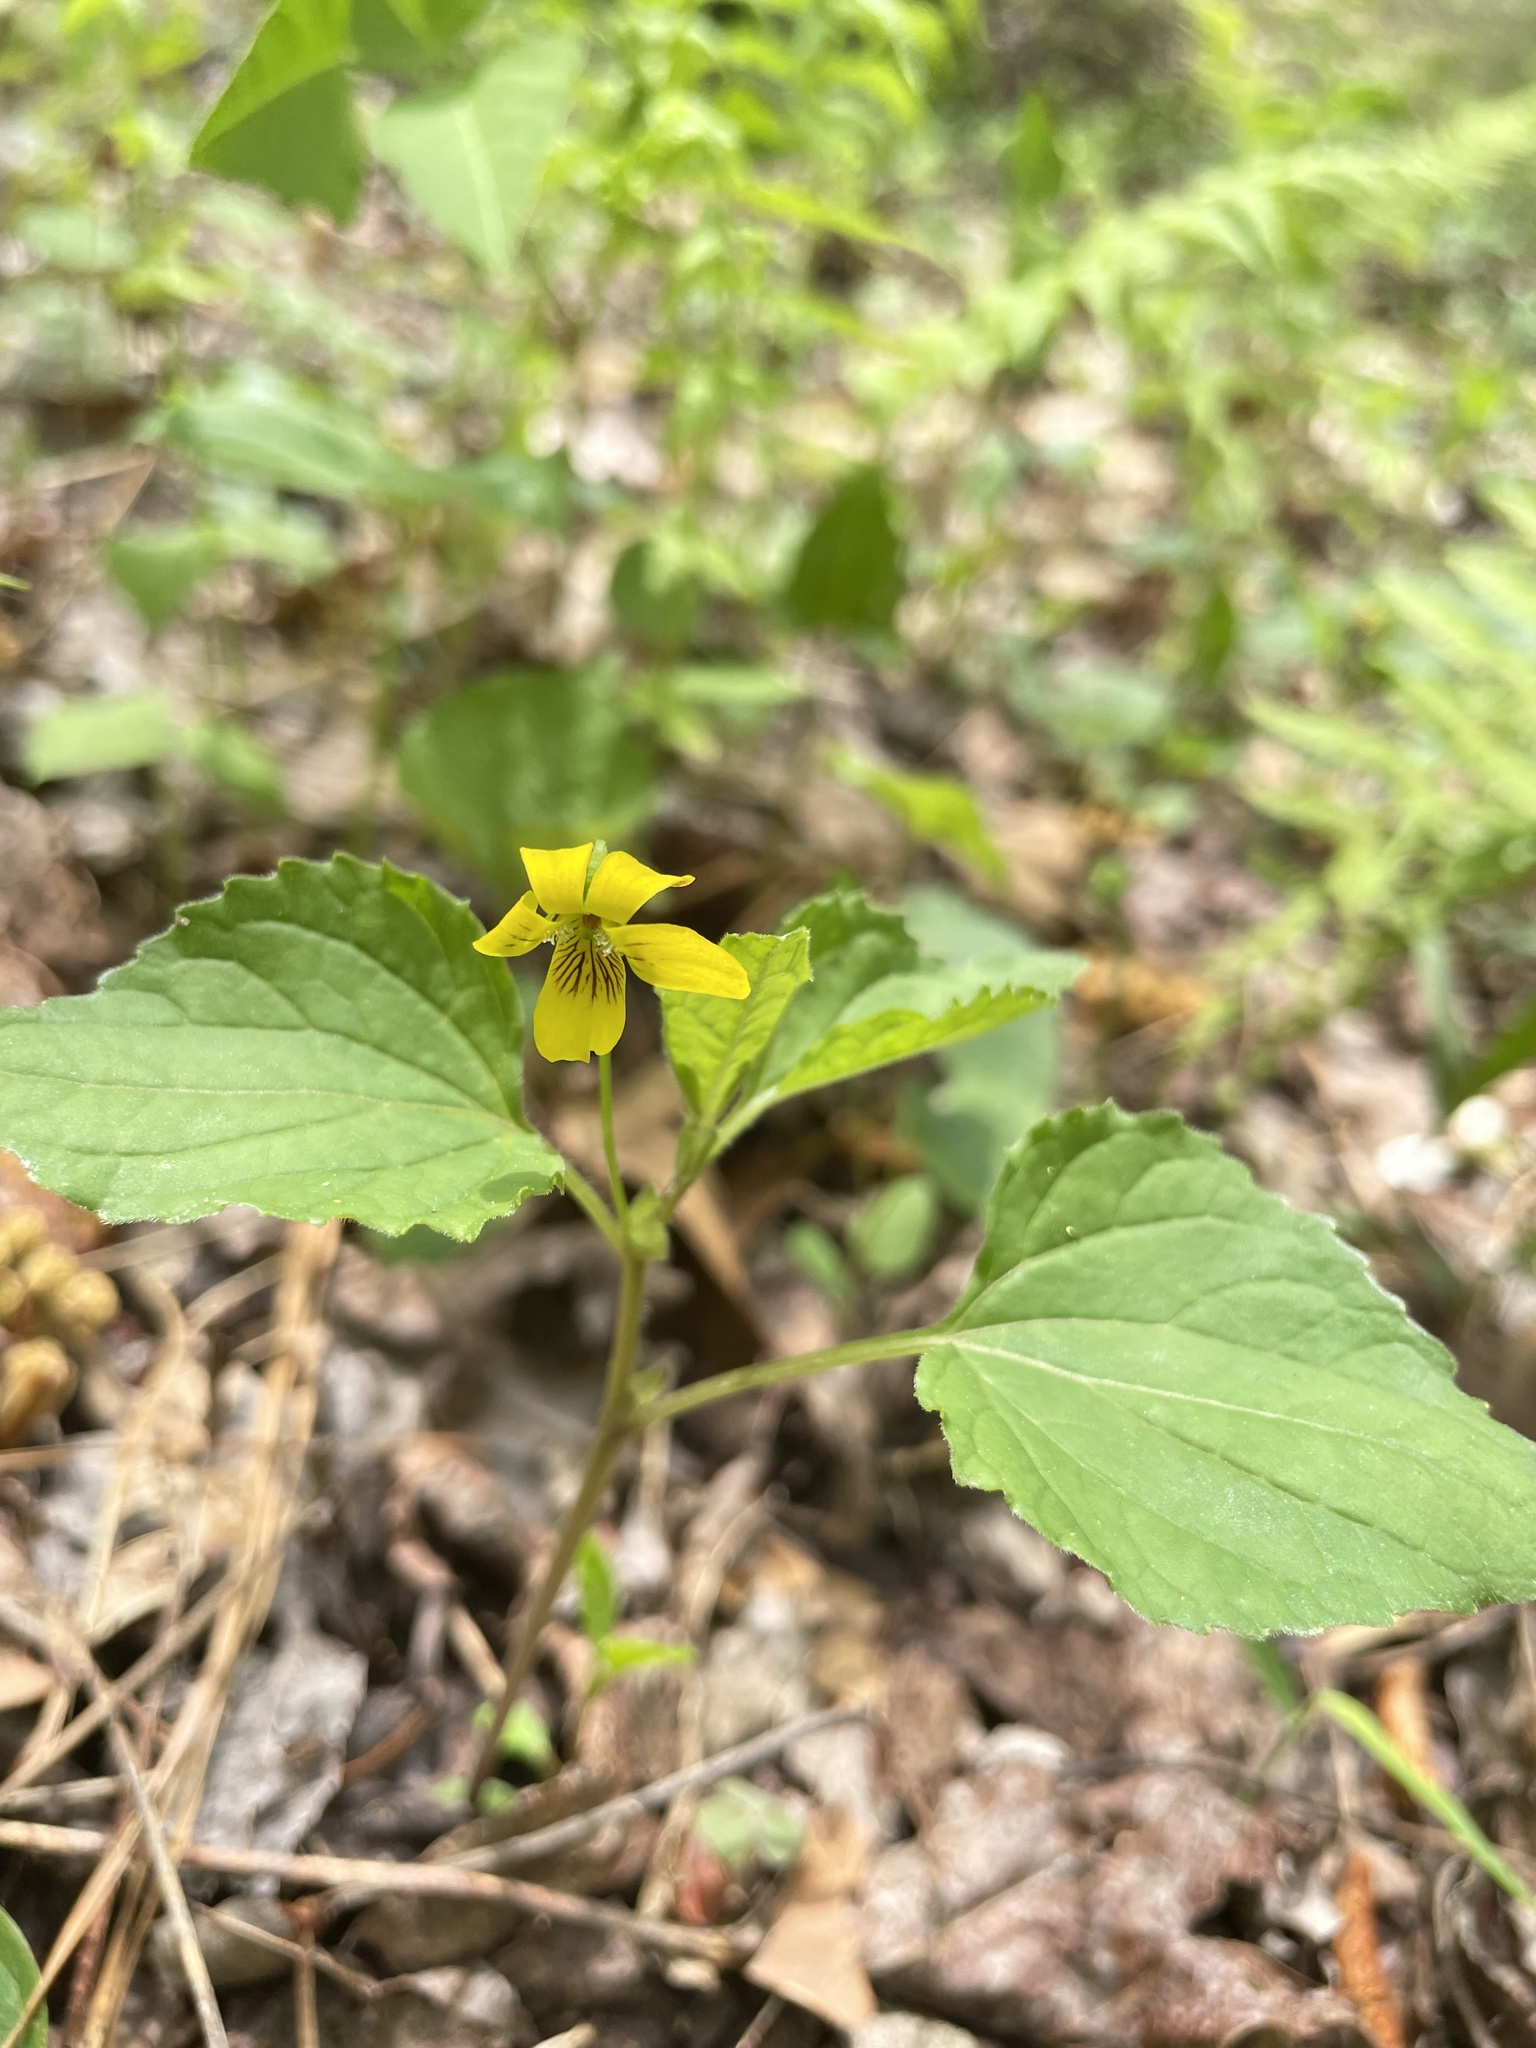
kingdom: Plantae
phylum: Tracheophyta
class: Magnoliopsida
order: Malpighiales
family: Violaceae
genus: Viola
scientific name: Viola glaberrima
